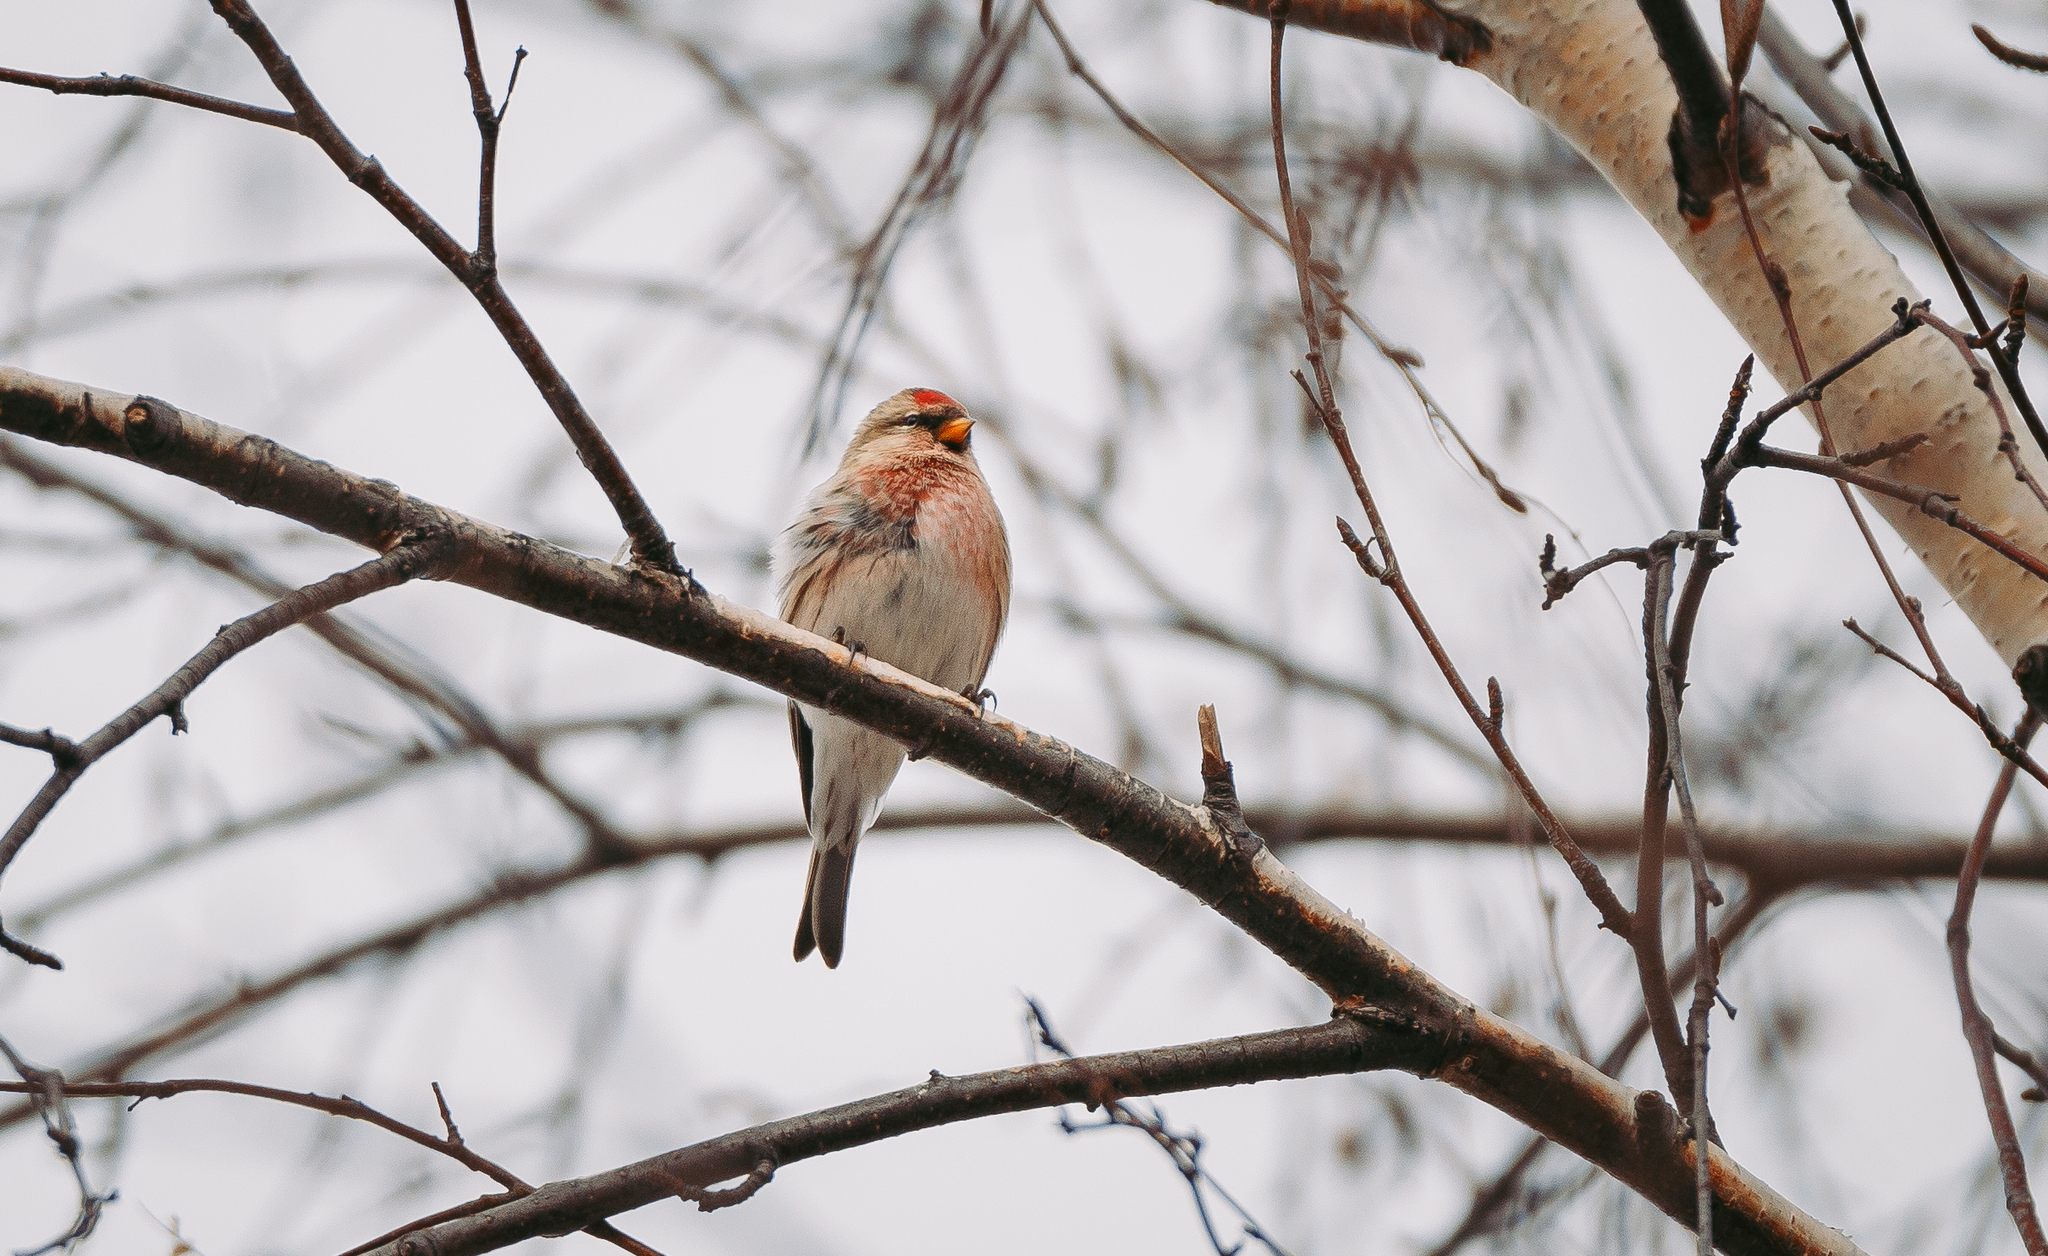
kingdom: Animalia
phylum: Chordata
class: Aves
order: Passeriformes
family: Fringillidae
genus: Acanthis
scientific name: Acanthis flammea
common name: Common redpoll
